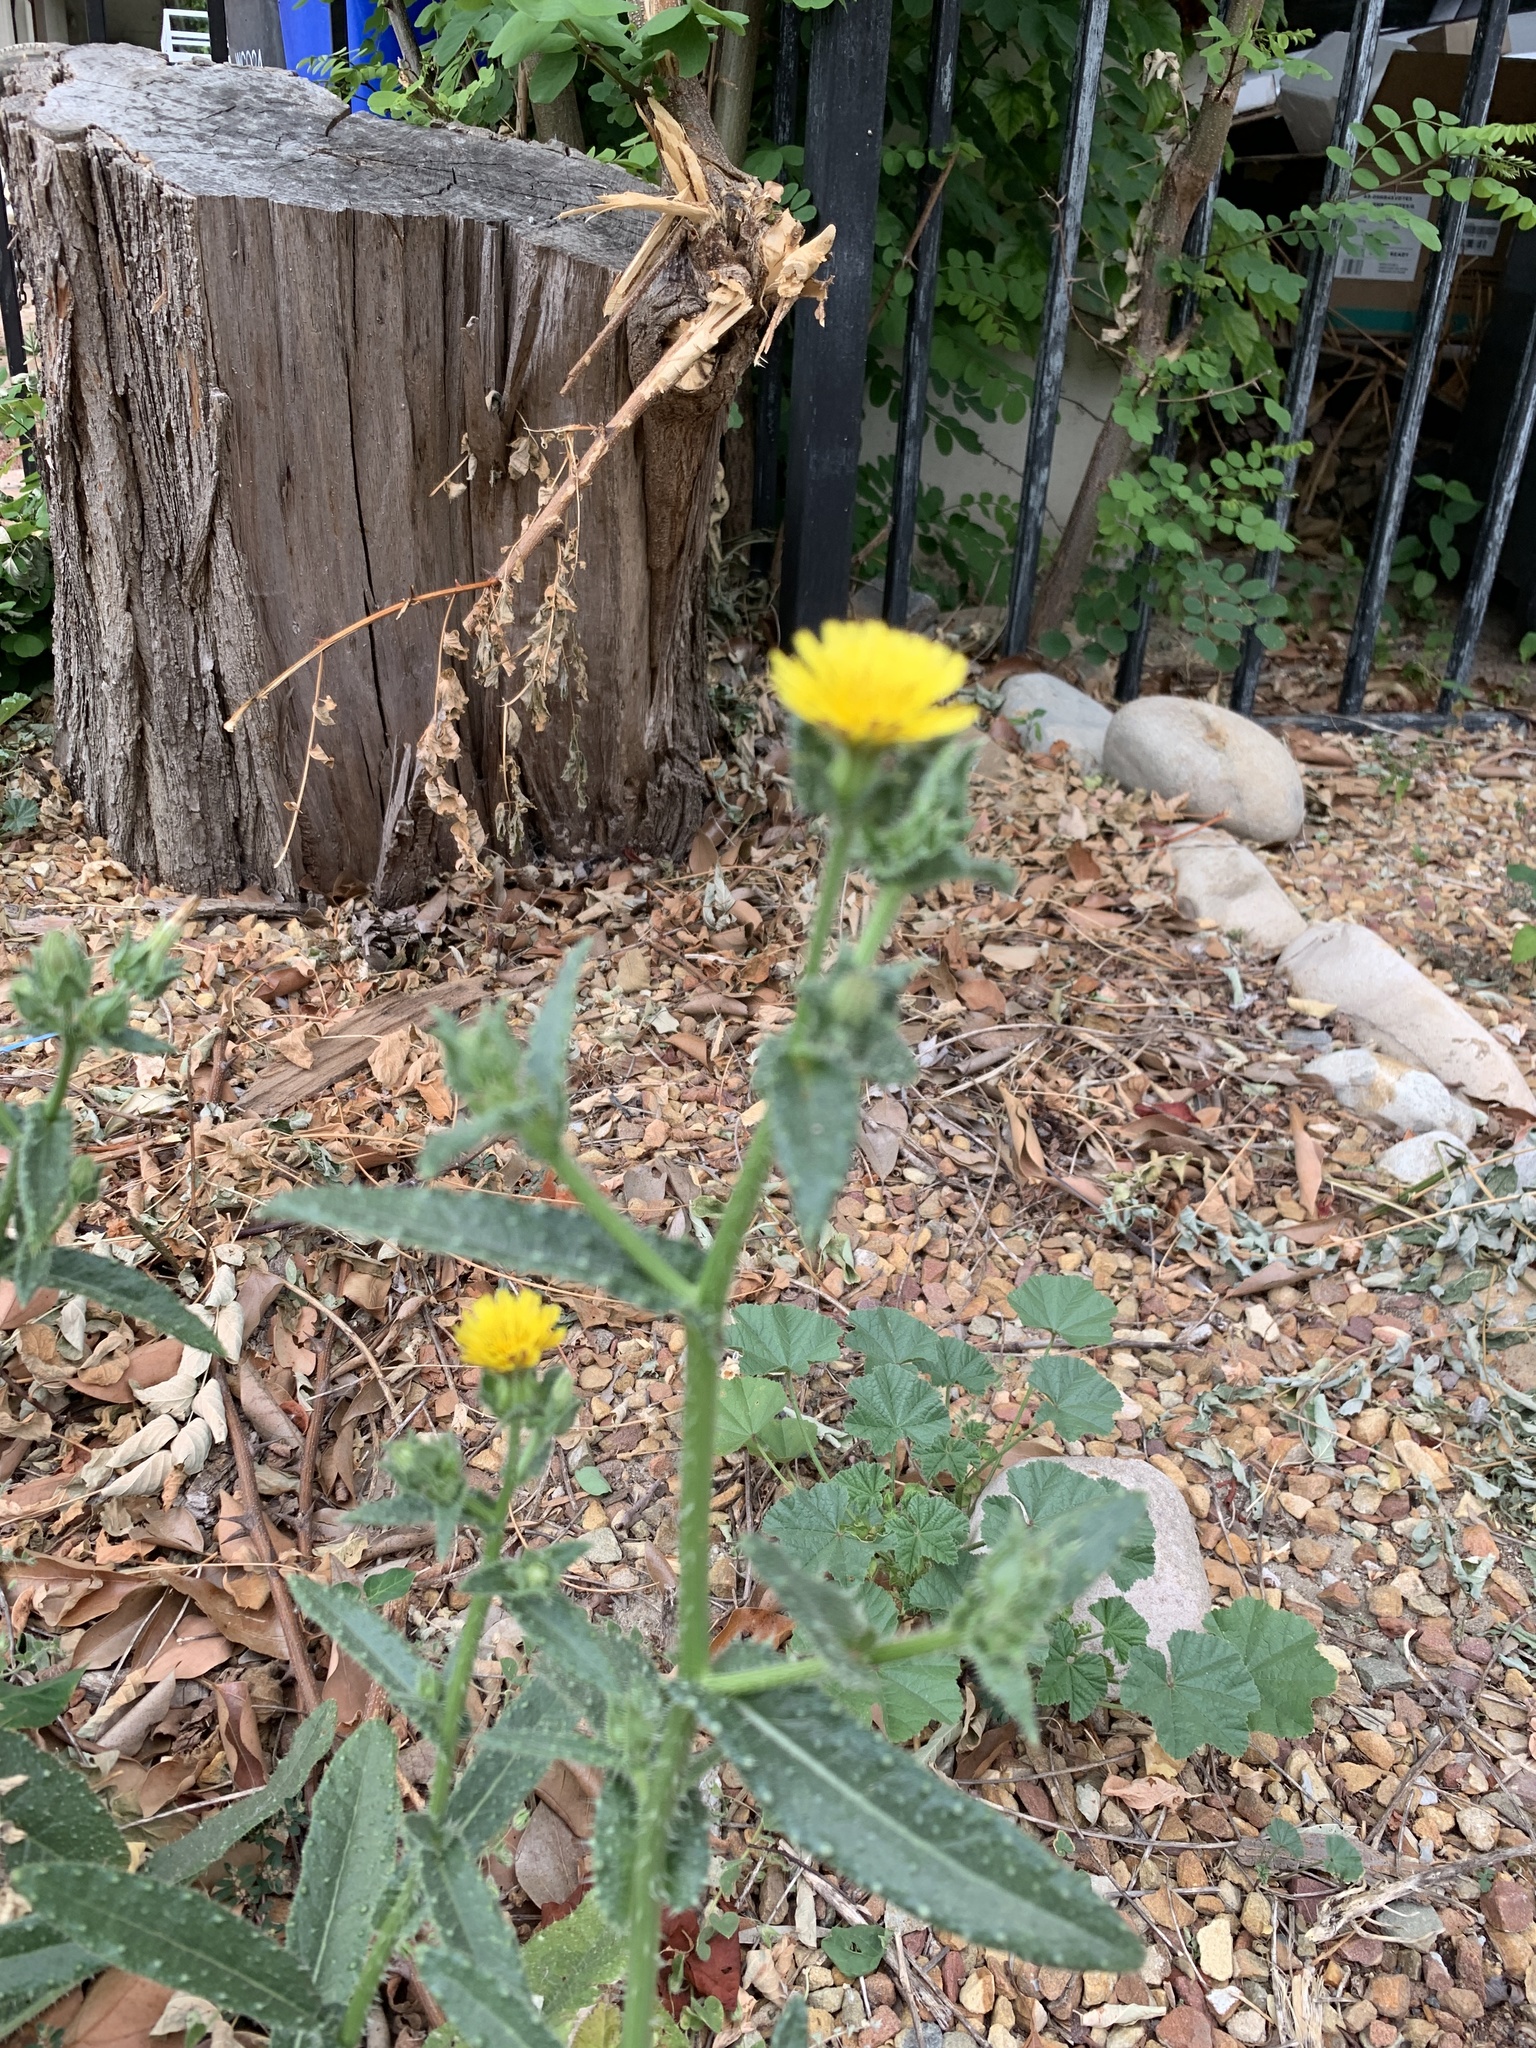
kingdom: Plantae
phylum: Tracheophyta
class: Magnoliopsida
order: Asterales
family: Asteraceae
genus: Helminthotheca
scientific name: Helminthotheca echioides
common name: Ox-tongue
